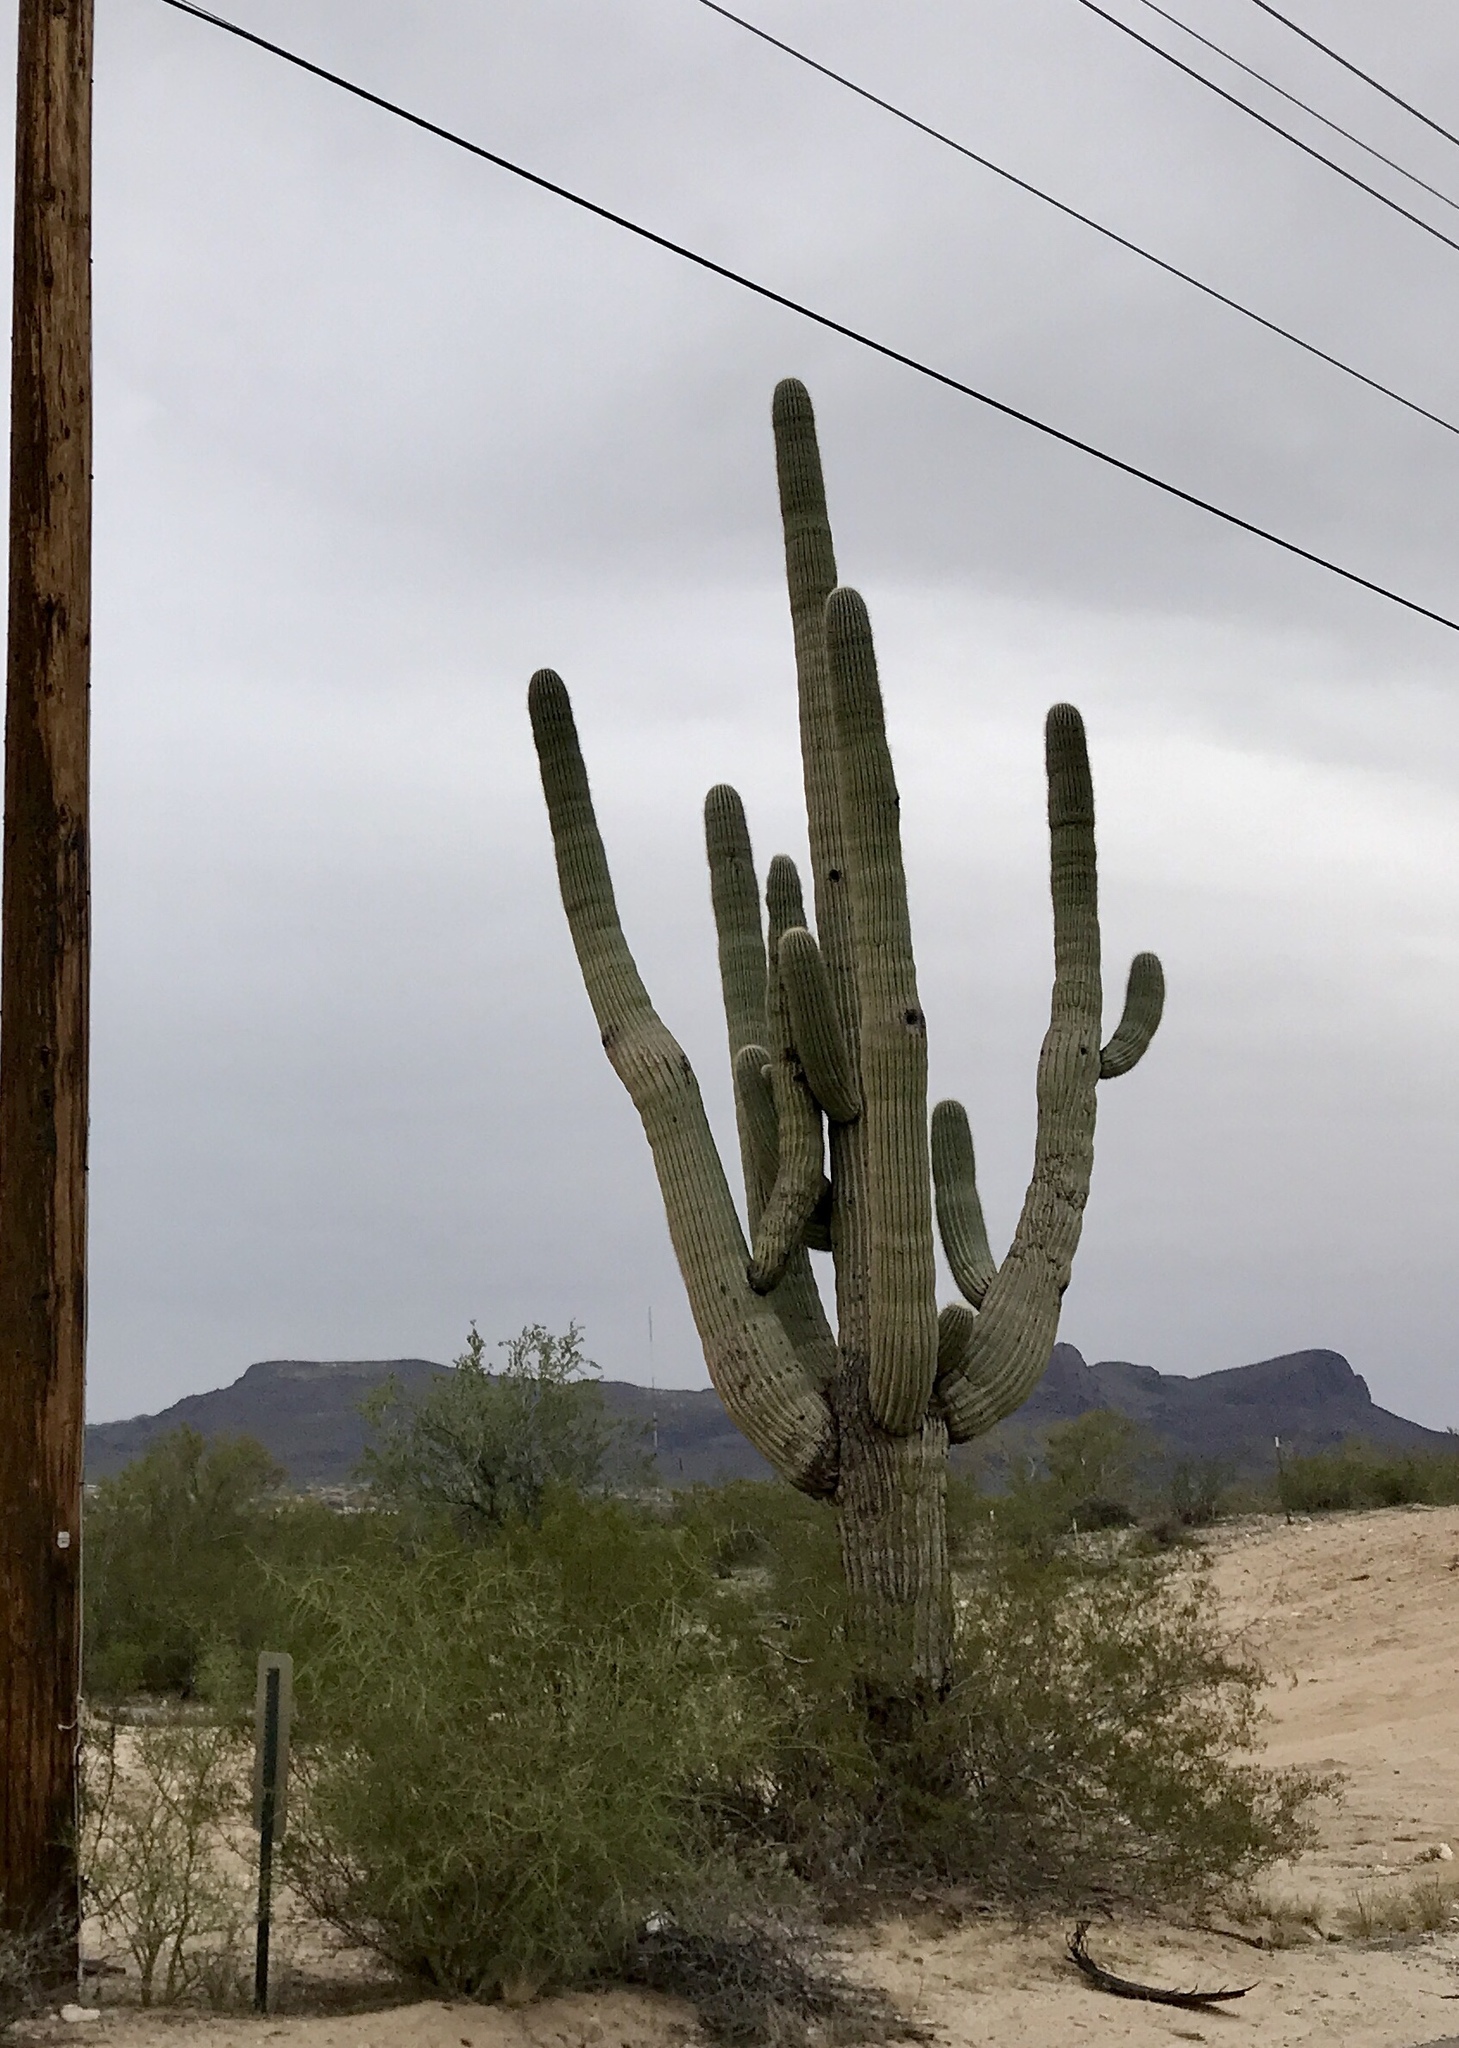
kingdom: Plantae
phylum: Tracheophyta
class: Magnoliopsida
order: Caryophyllales
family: Cactaceae
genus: Carnegiea
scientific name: Carnegiea gigantea
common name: Saguaro
